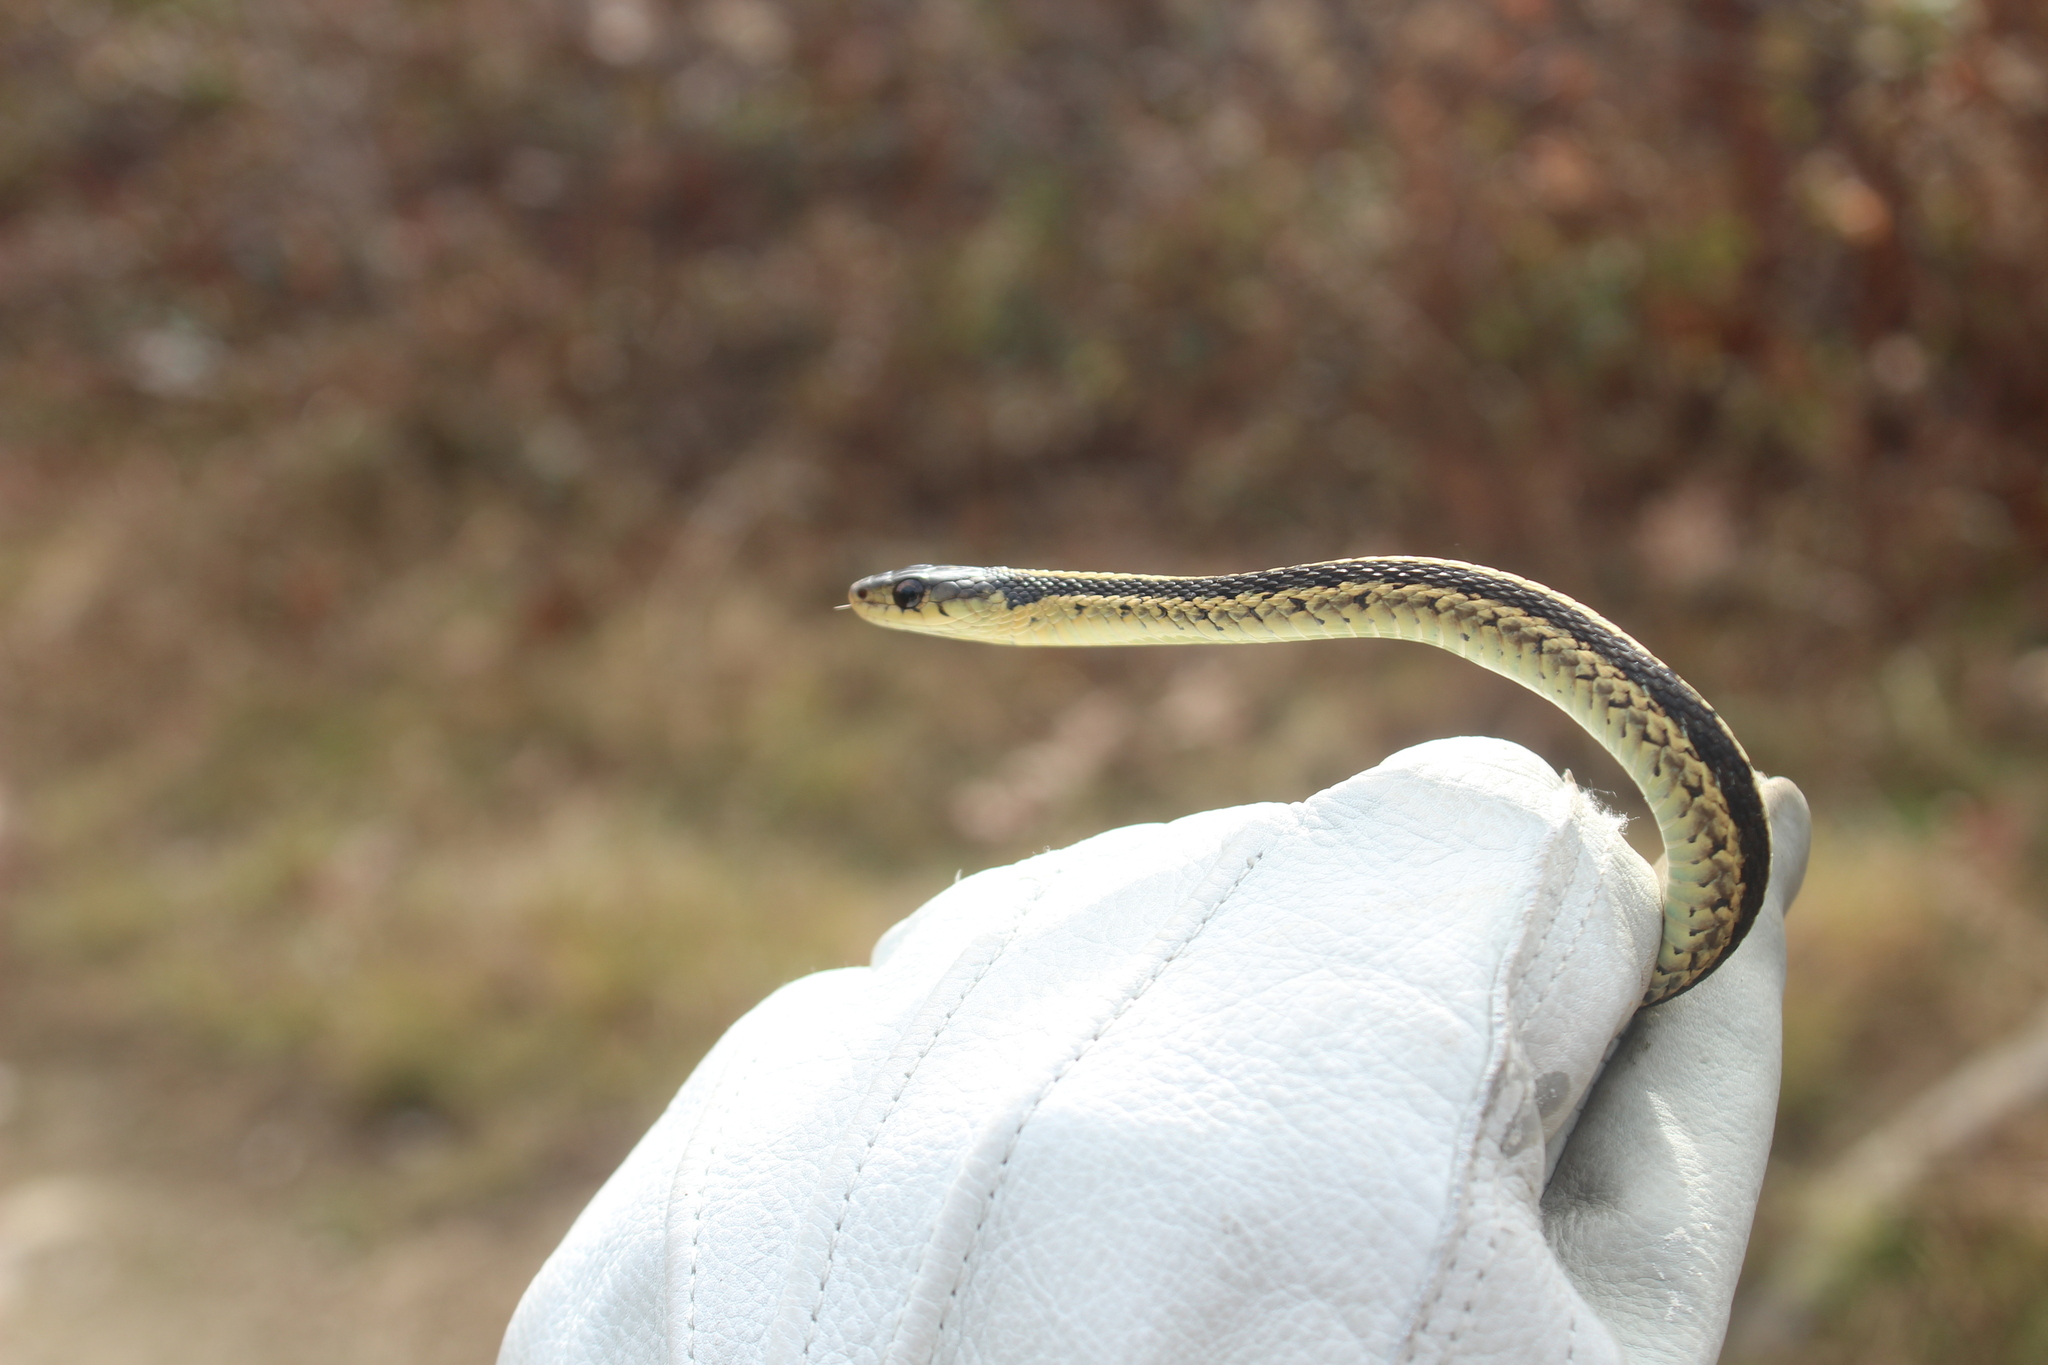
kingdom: Animalia
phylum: Chordata
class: Squamata
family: Colubridae
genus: Thamnophis
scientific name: Thamnophis sirtalis
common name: Common garter snake
